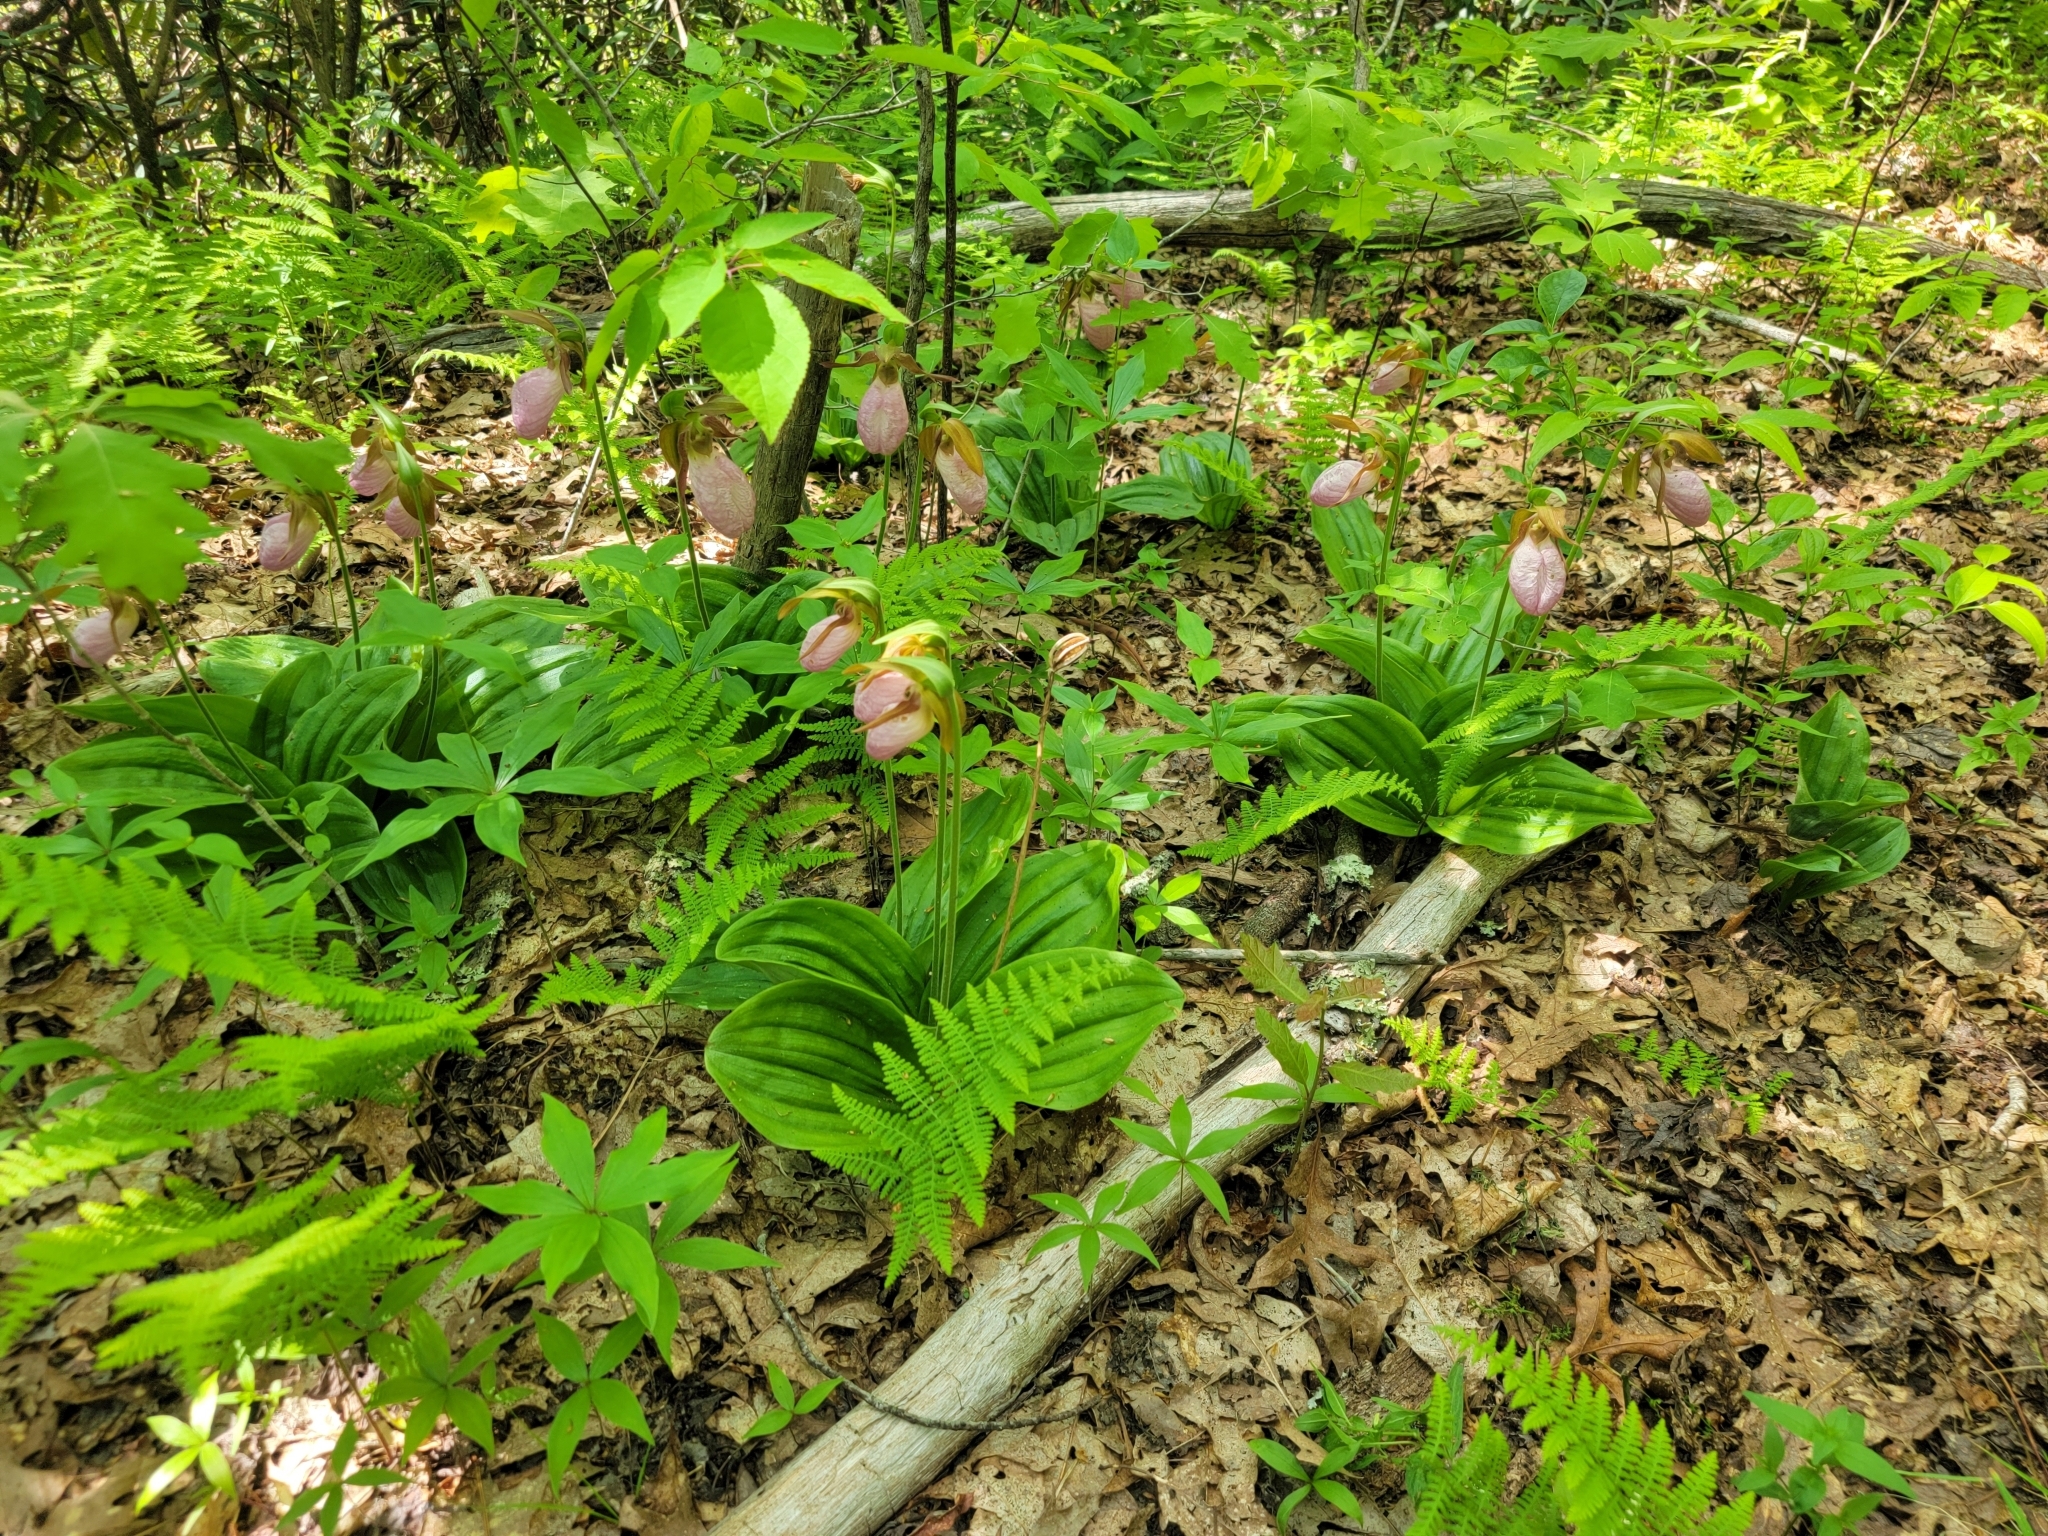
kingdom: Plantae
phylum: Tracheophyta
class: Liliopsida
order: Asparagales
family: Orchidaceae
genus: Cypripedium
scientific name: Cypripedium acaule
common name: Pink lady's-slipper
